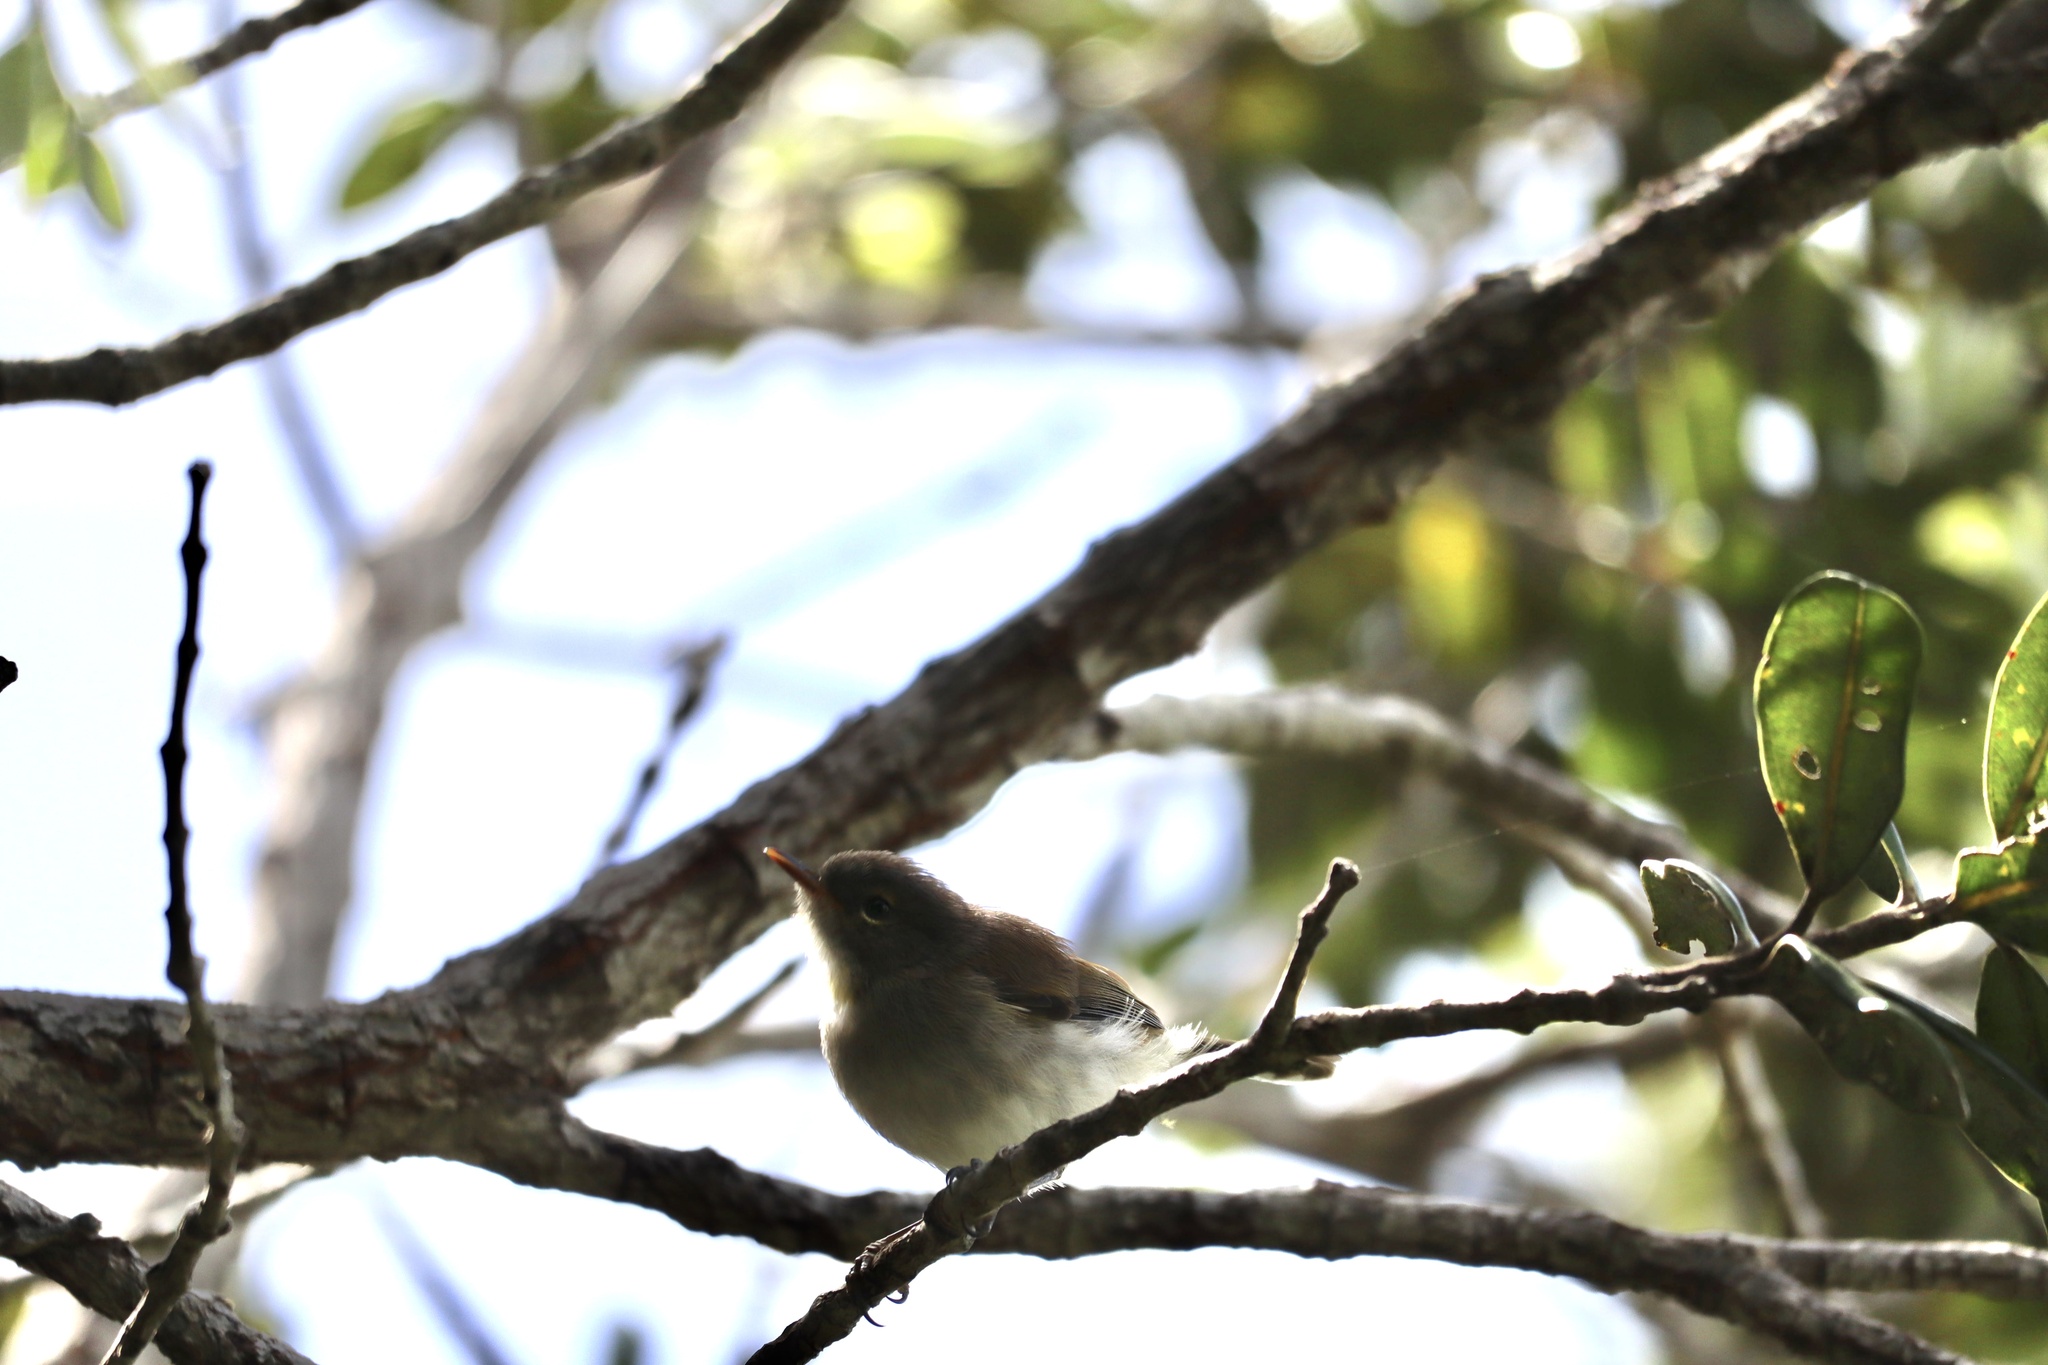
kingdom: Animalia
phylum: Chordata
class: Aves
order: Passeriformes
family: Acanthizidae
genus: Gerygone
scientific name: Gerygone igata
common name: Grey gerygone
